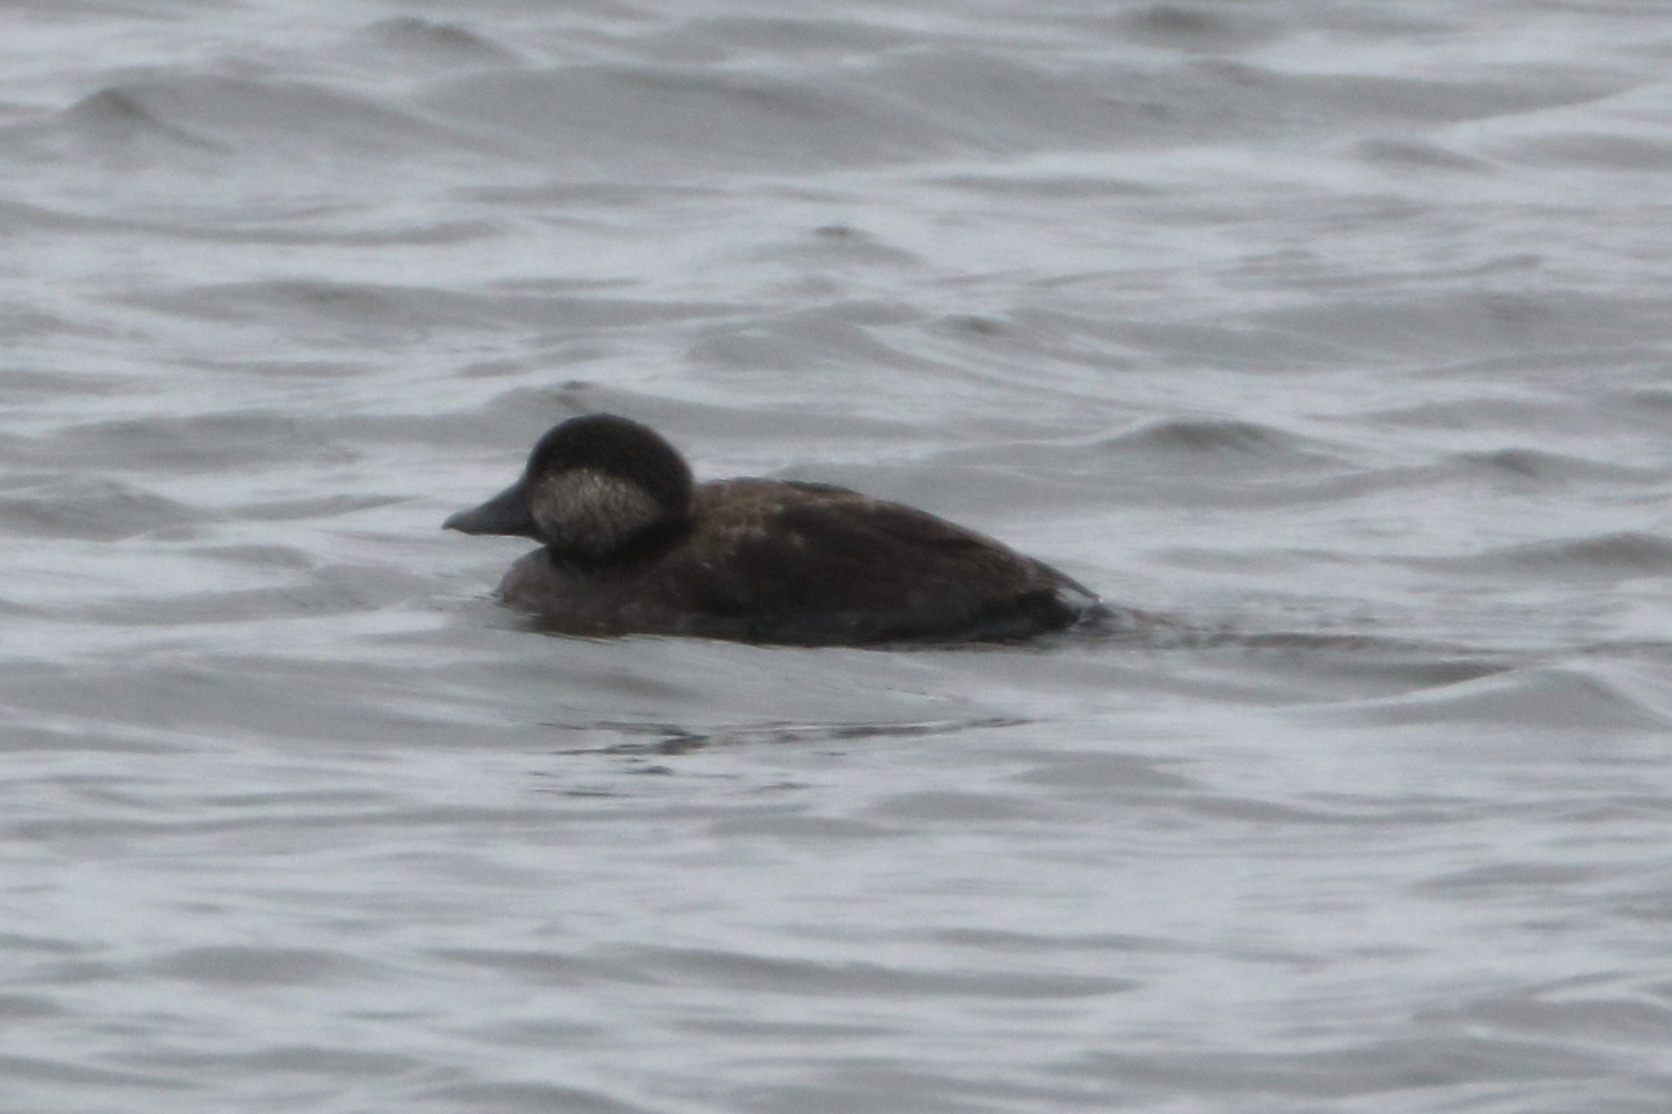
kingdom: Animalia
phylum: Chordata
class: Aves
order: Anseriformes
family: Anatidae
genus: Melanitta
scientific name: Melanitta americana
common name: Black scoter
